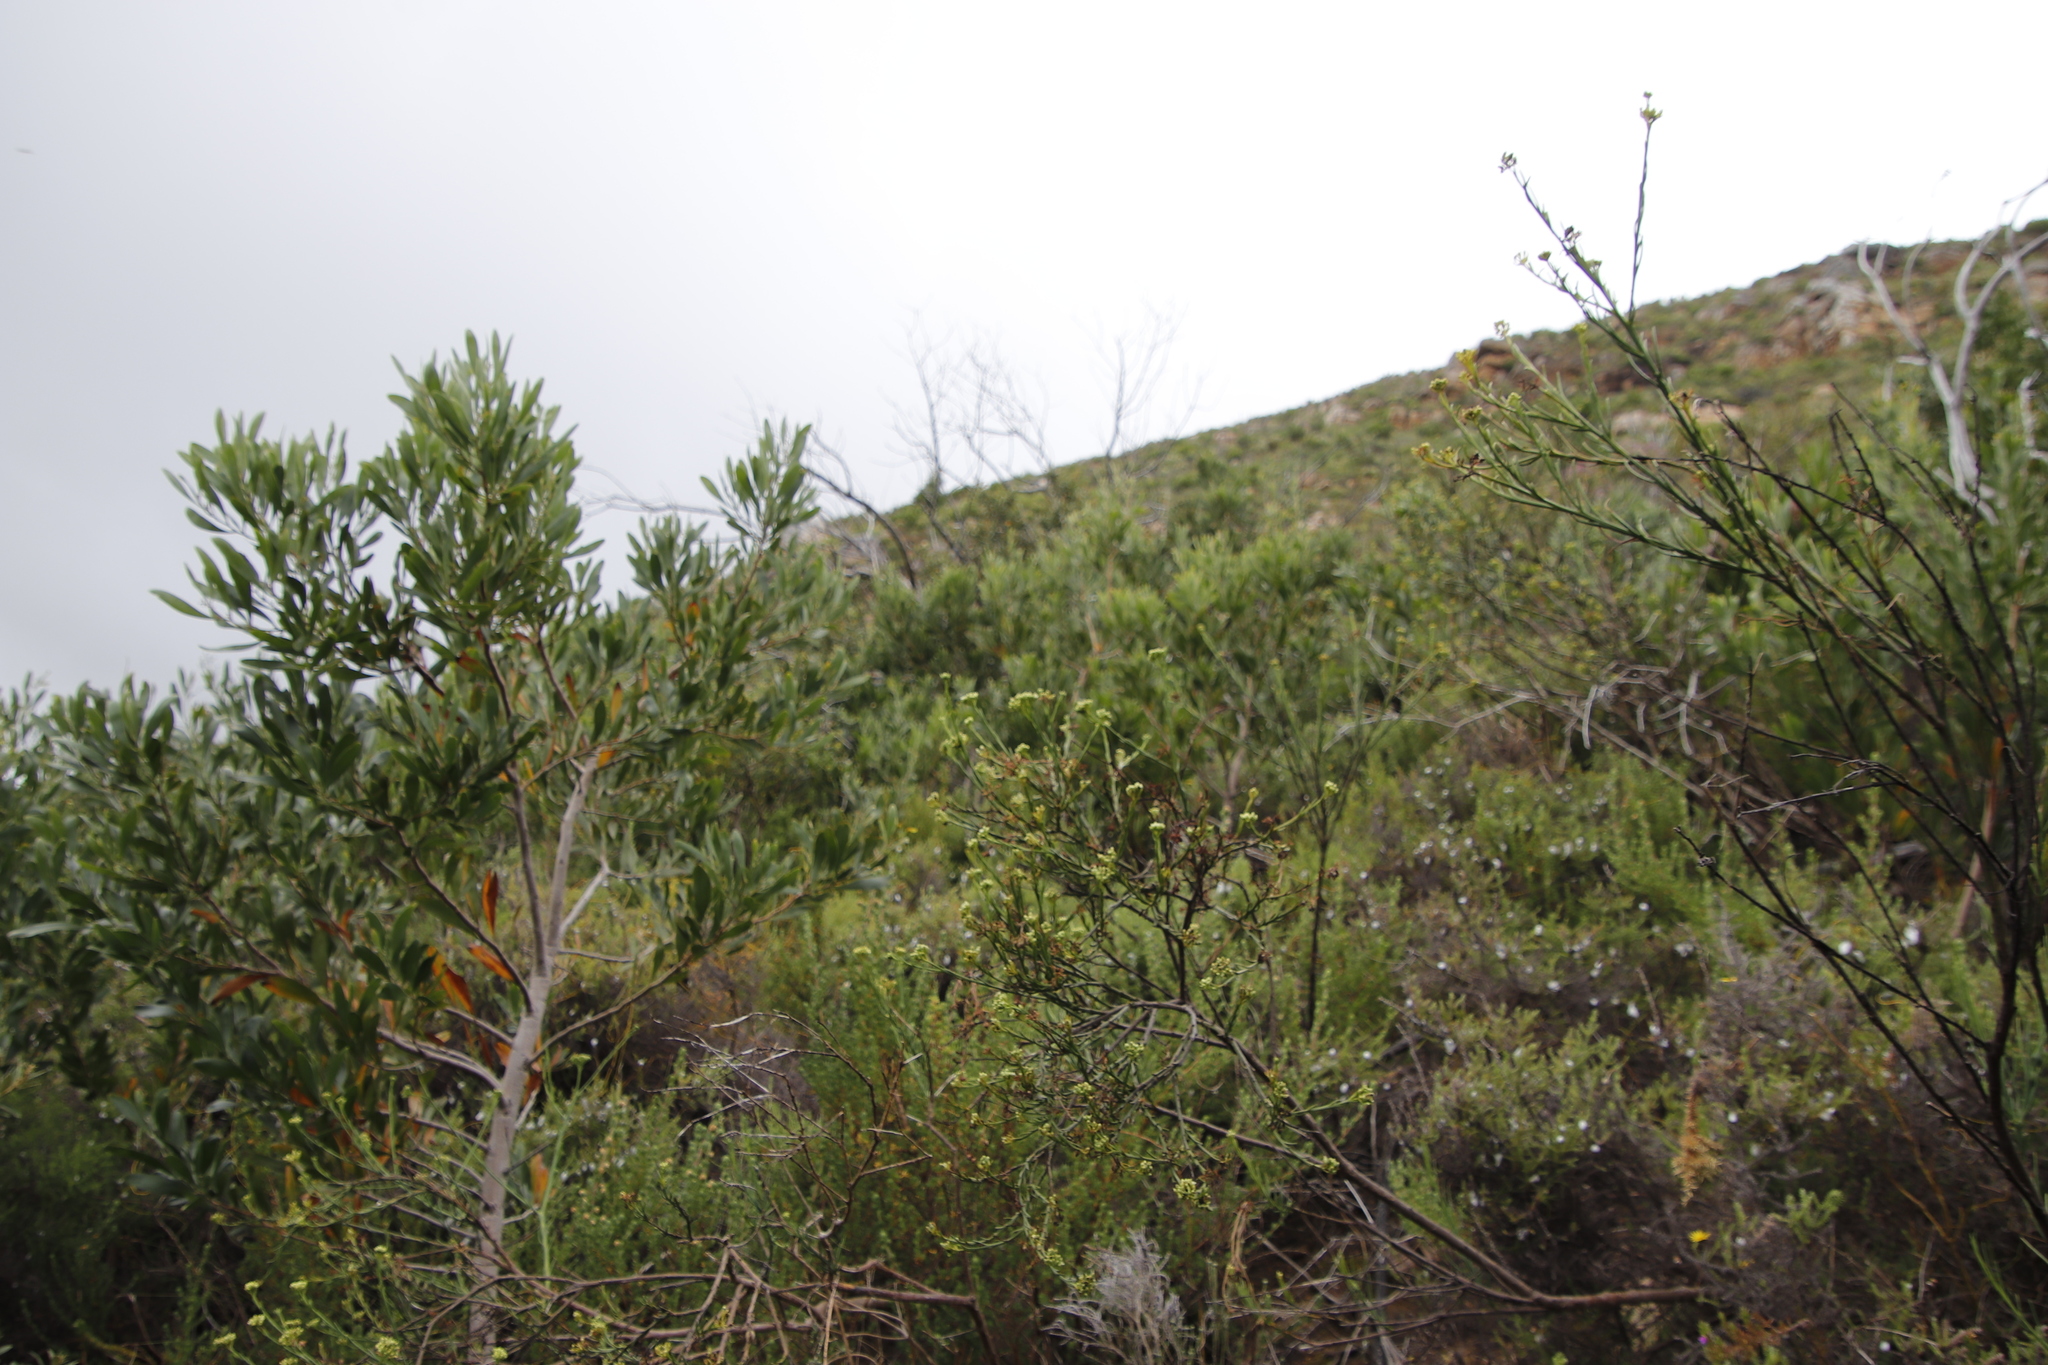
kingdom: Plantae
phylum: Tracheophyta
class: Magnoliopsida
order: Santalales
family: Thesiaceae
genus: Thesium
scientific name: Thesium strictum
